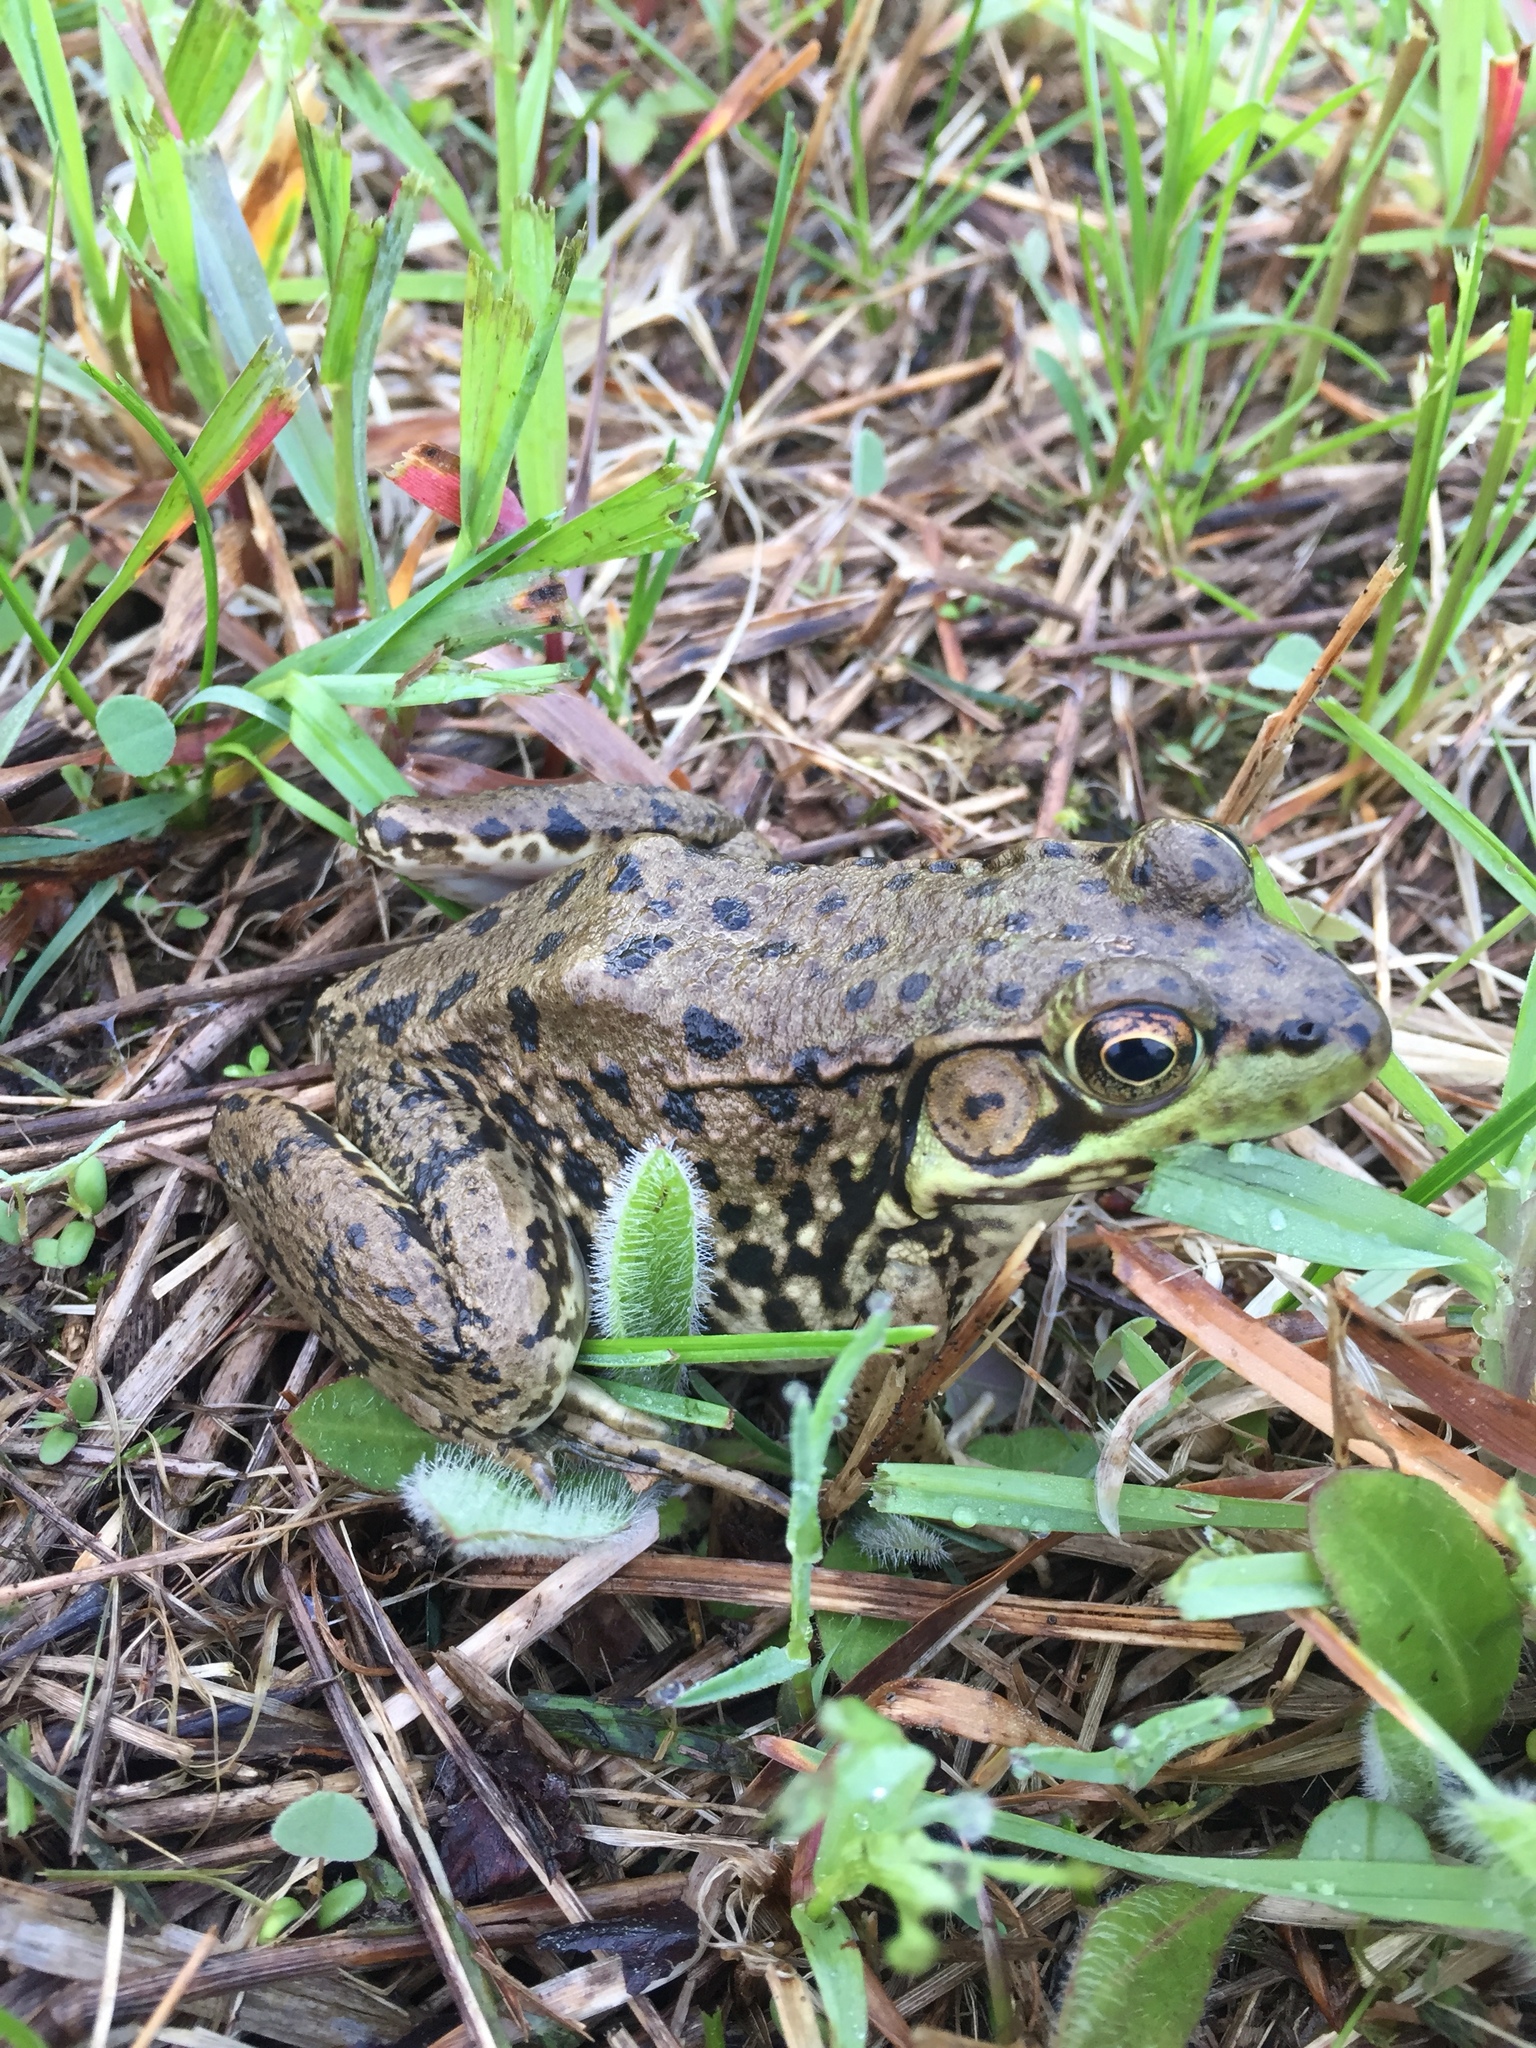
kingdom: Animalia
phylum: Chordata
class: Amphibia
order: Anura
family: Ranidae
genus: Lithobates
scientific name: Lithobates clamitans
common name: Green frog
